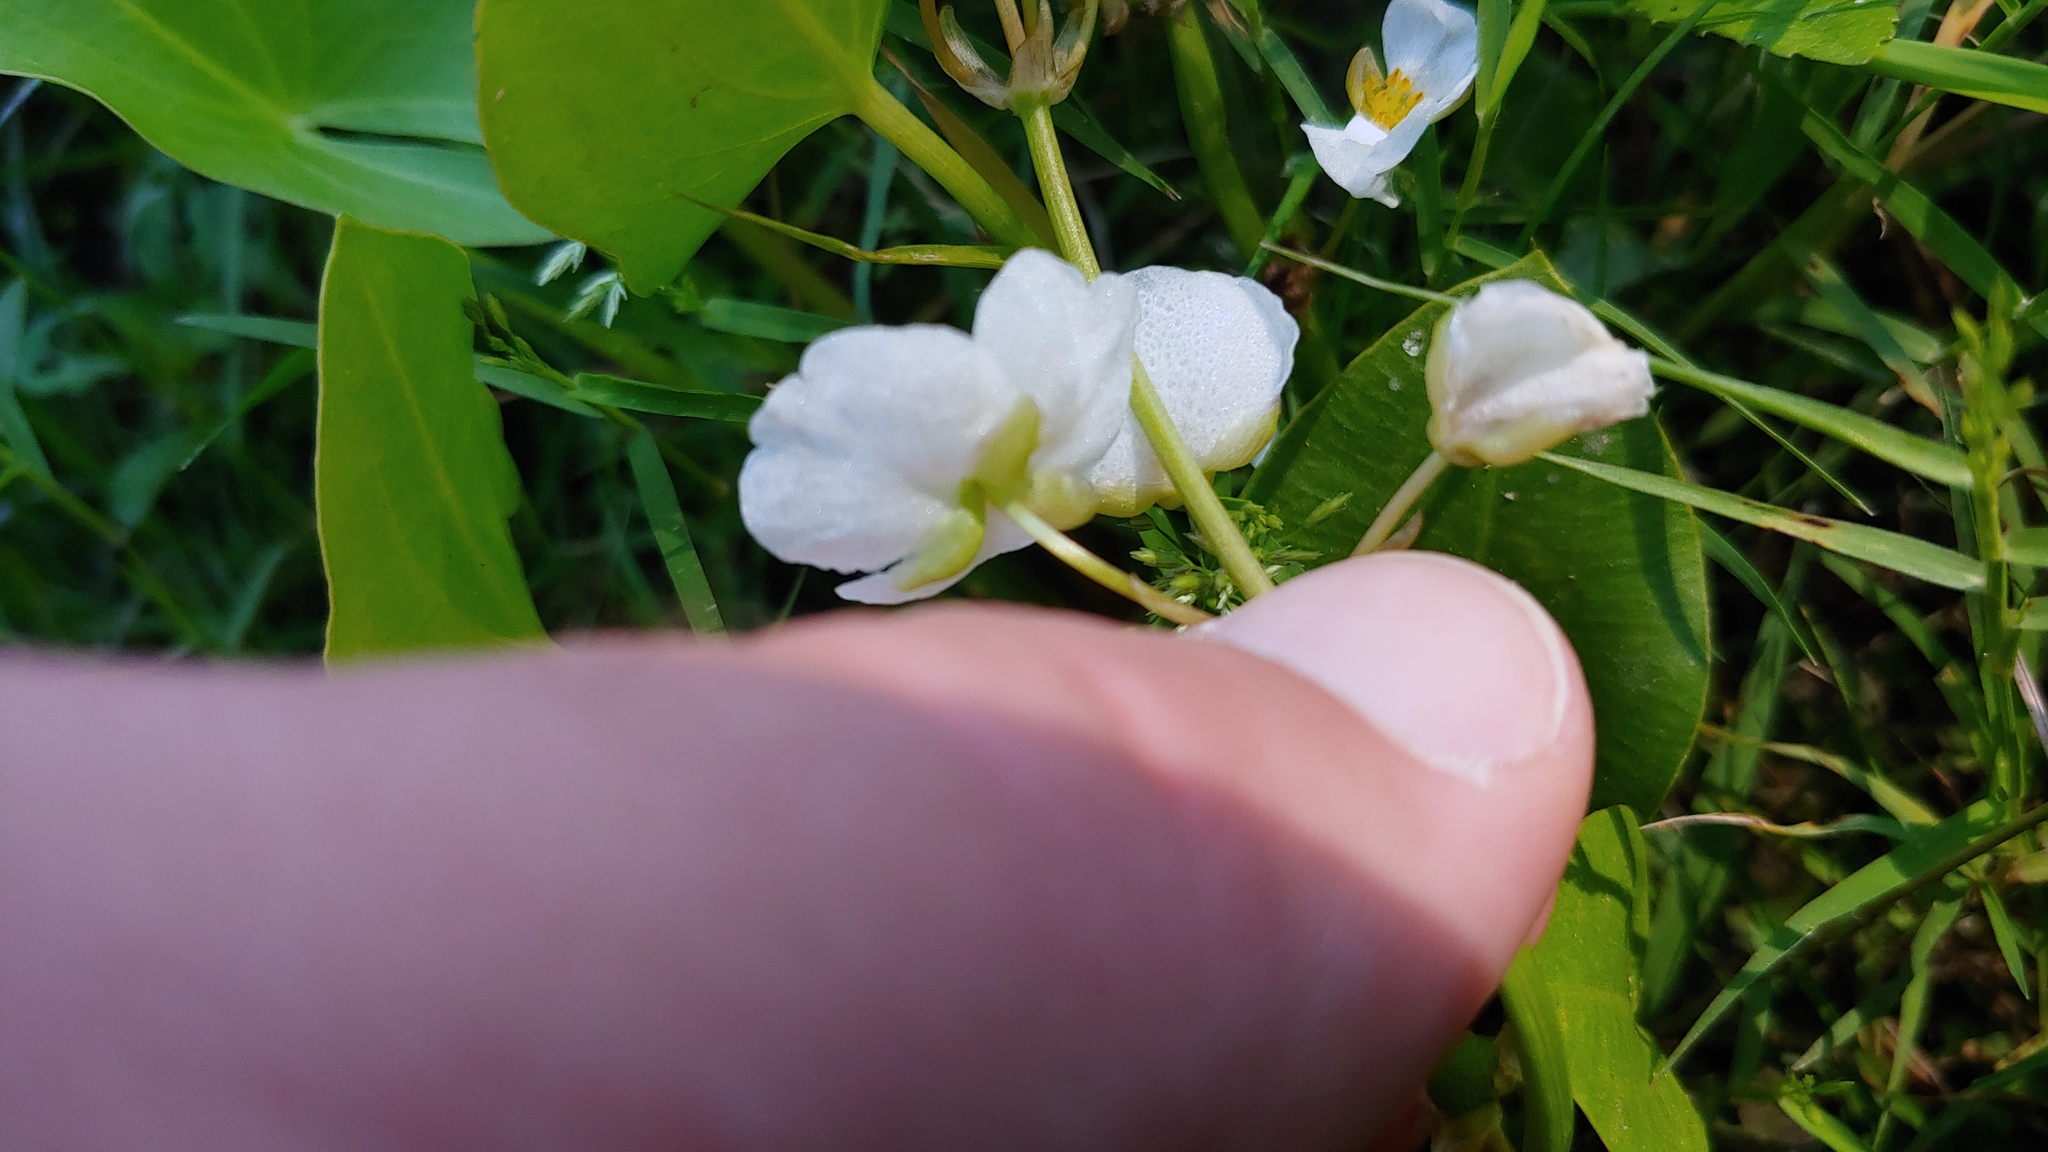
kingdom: Plantae
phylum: Tracheophyta
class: Liliopsida
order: Alismatales
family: Alismataceae
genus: Sagittaria
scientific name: Sagittaria cuneata
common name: Northern arrowhead
